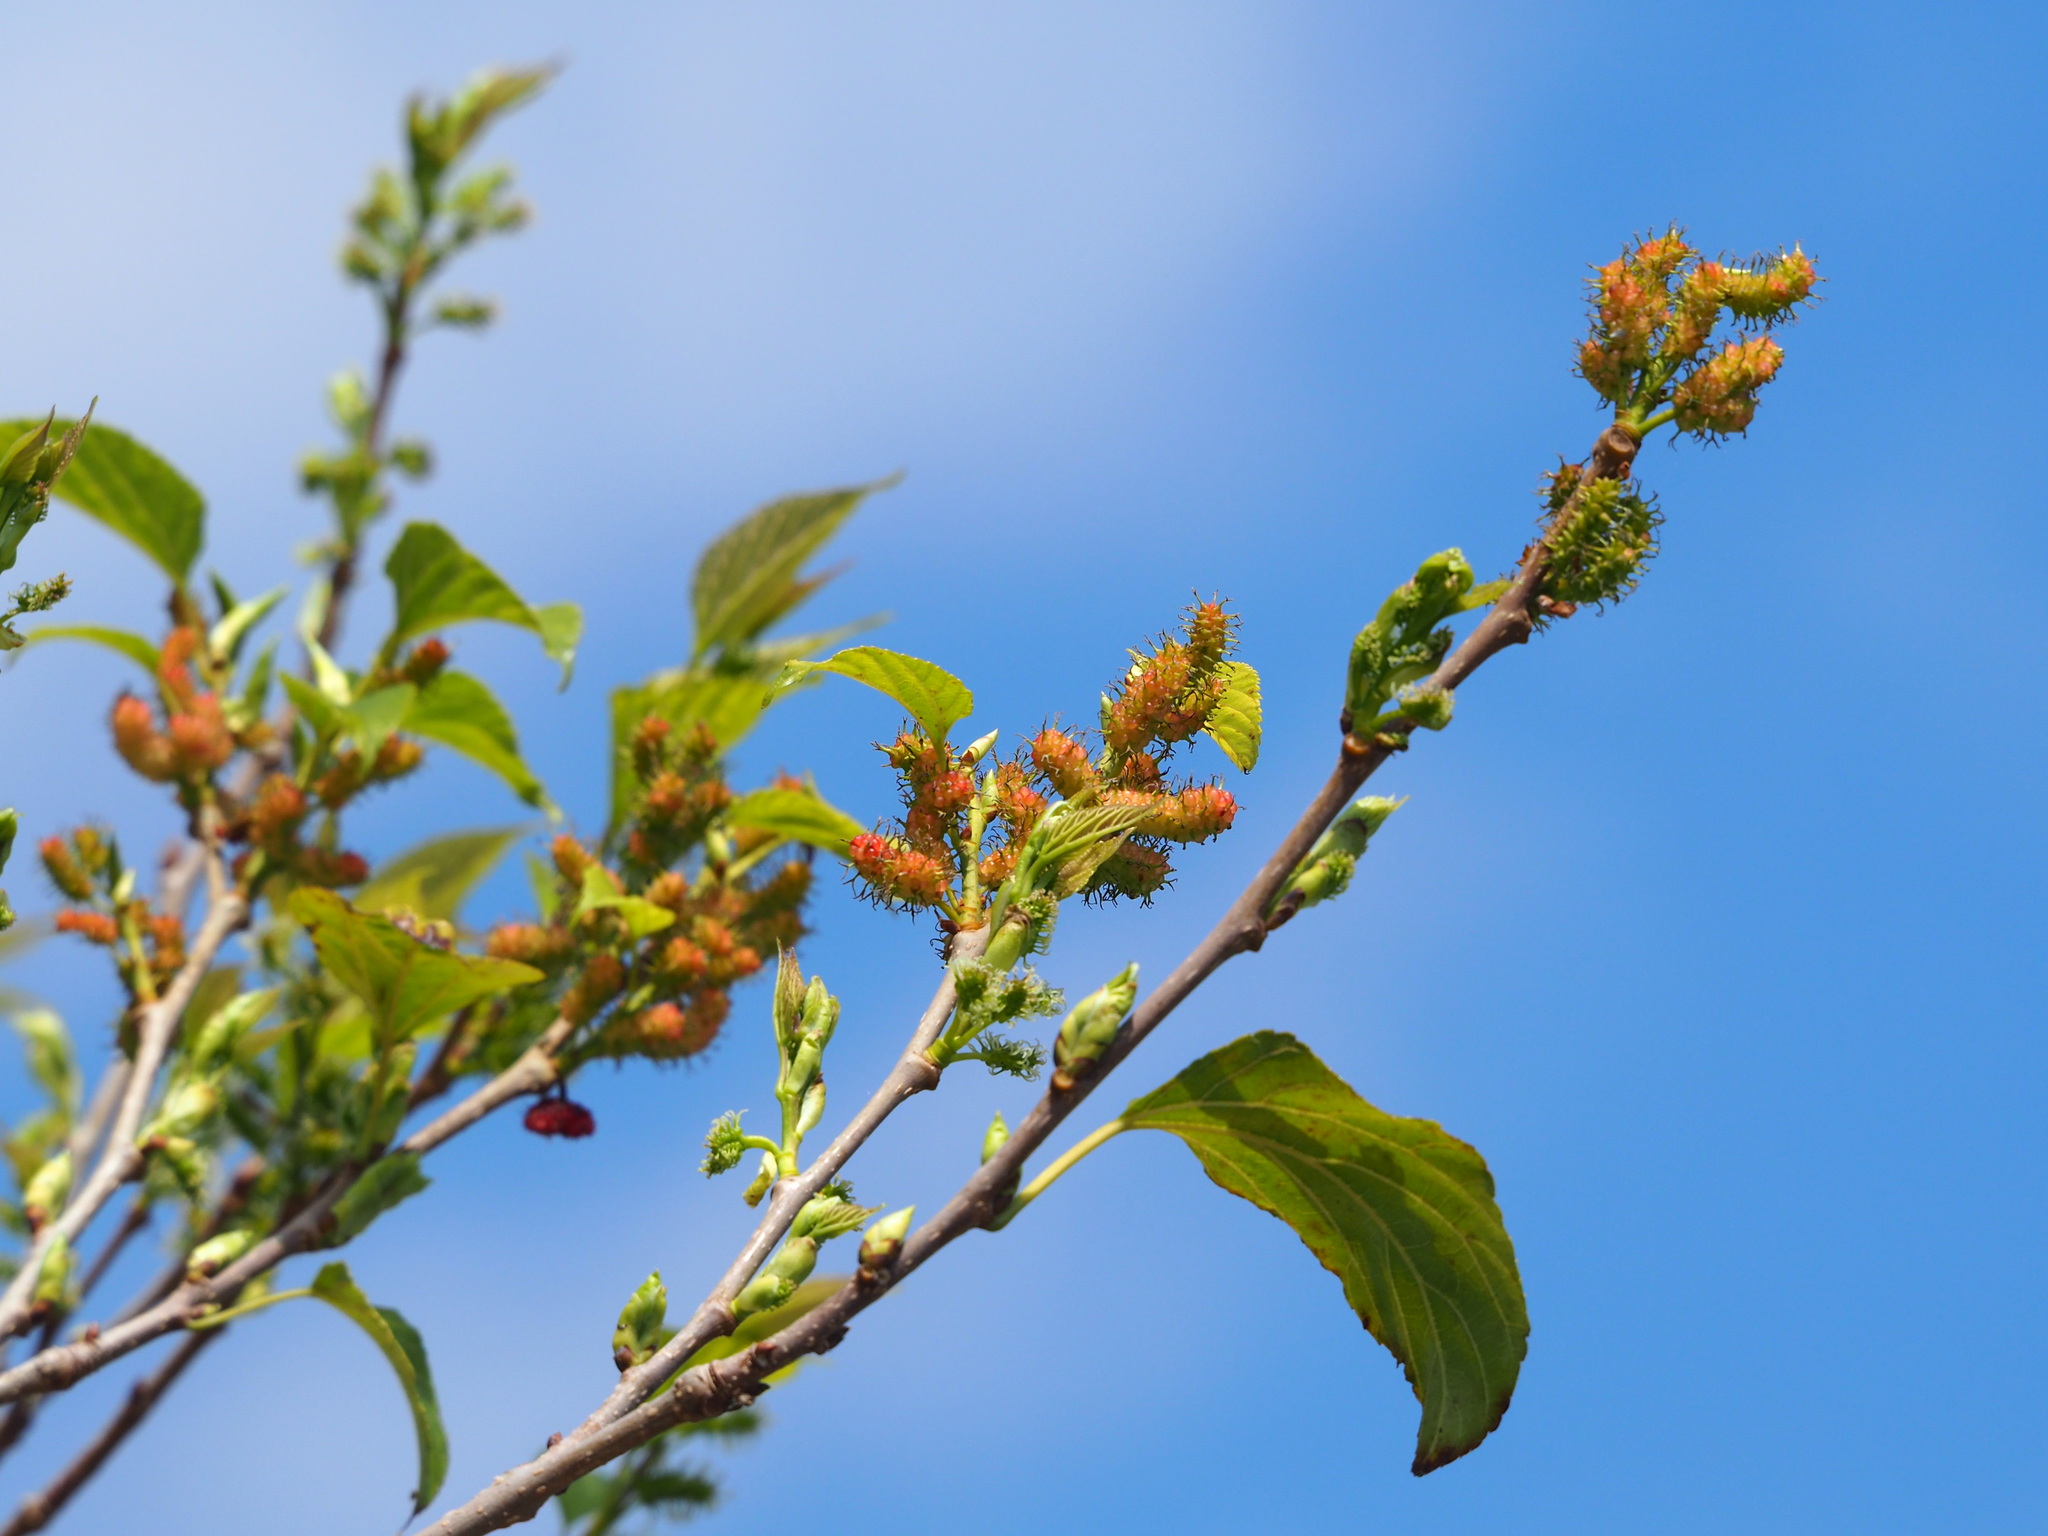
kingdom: Plantae
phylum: Tracheophyta
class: Magnoliopsida
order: Rosales
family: Moraceae
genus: Morus
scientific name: Morus indica
